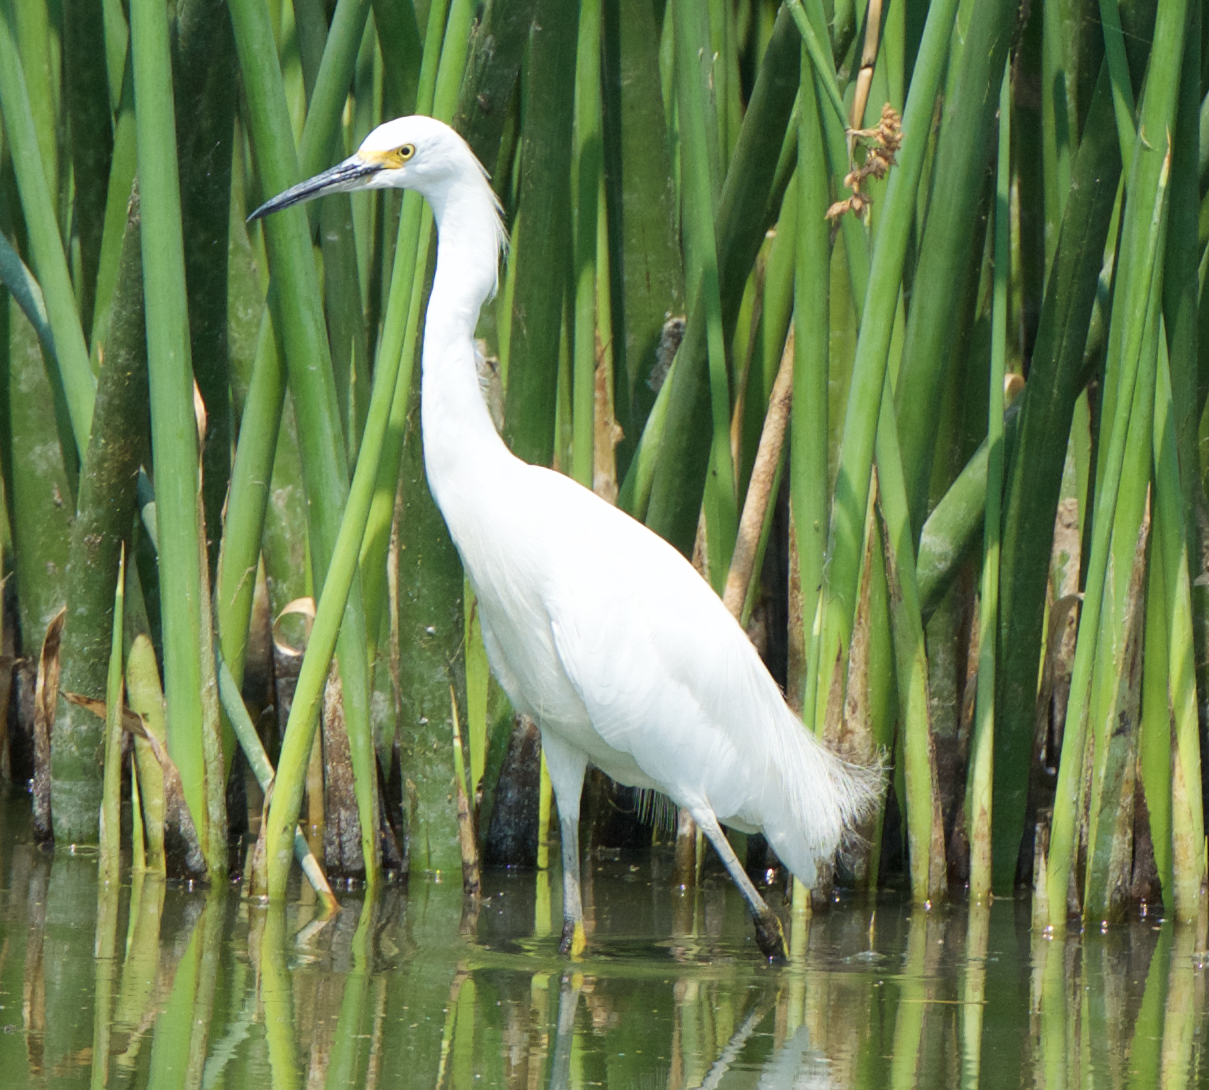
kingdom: Animalia
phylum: Chordata
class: Aves
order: Pelecaniformes
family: Ardeidae
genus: Egretta
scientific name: Egretta thula
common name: Snowy egret
